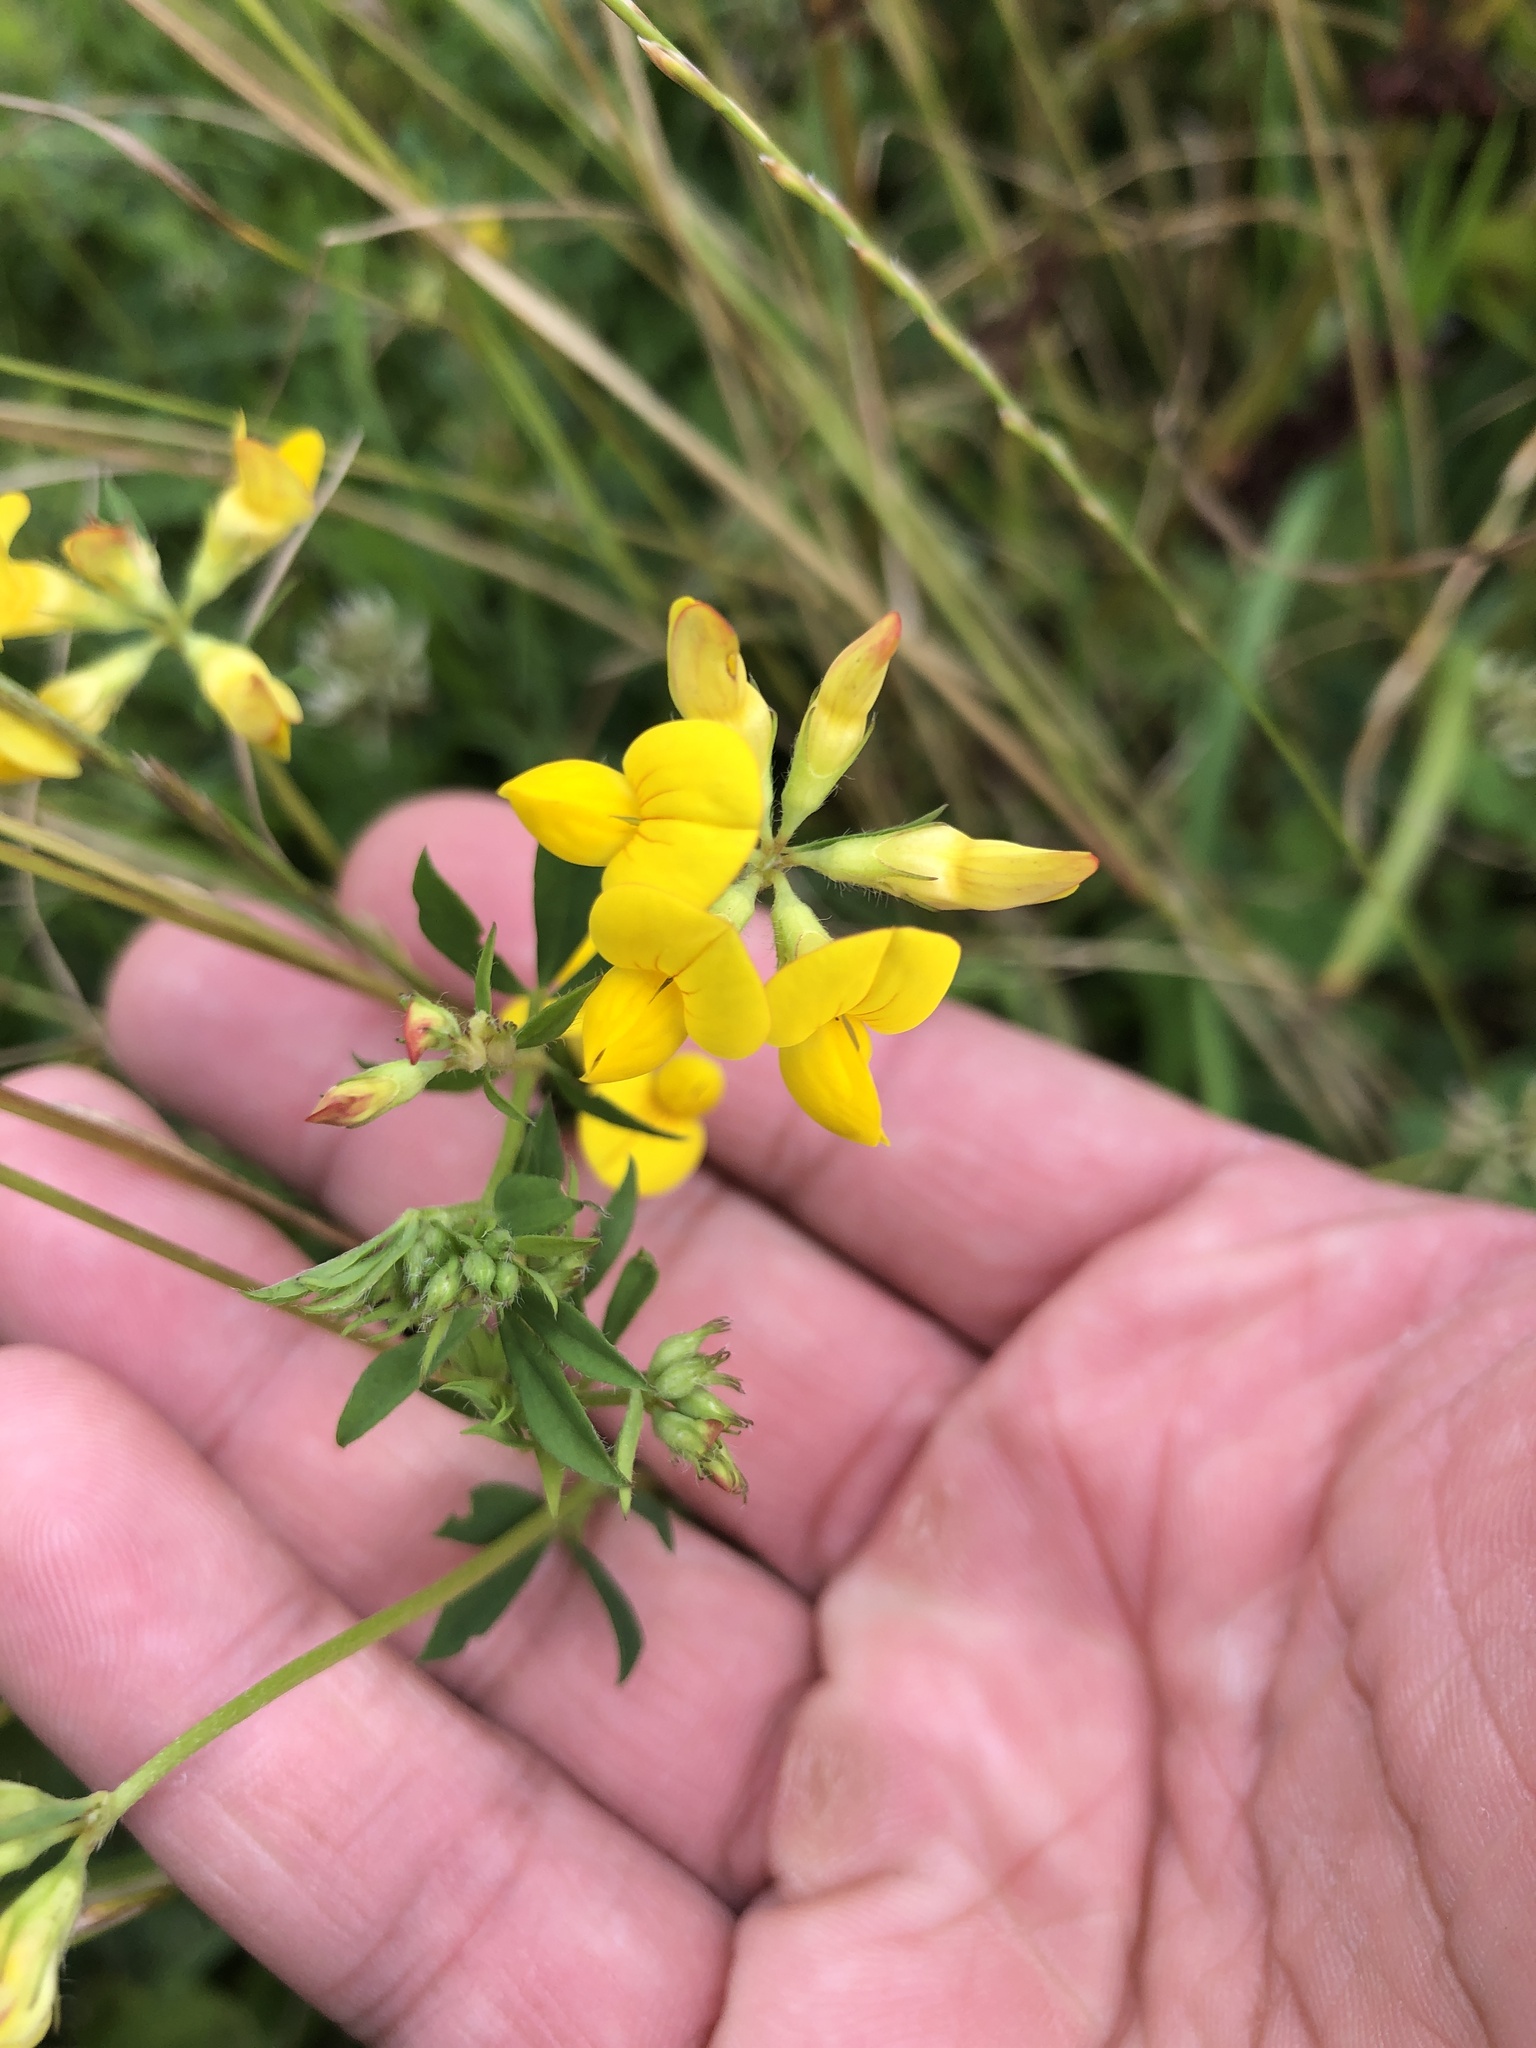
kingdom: Plantae
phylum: Tracheophyta
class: Magnoliopsida
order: Fabales
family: Fabaceae
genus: Lotus
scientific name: Lotus corniculatus
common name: Common bird's-foot-trefoil
